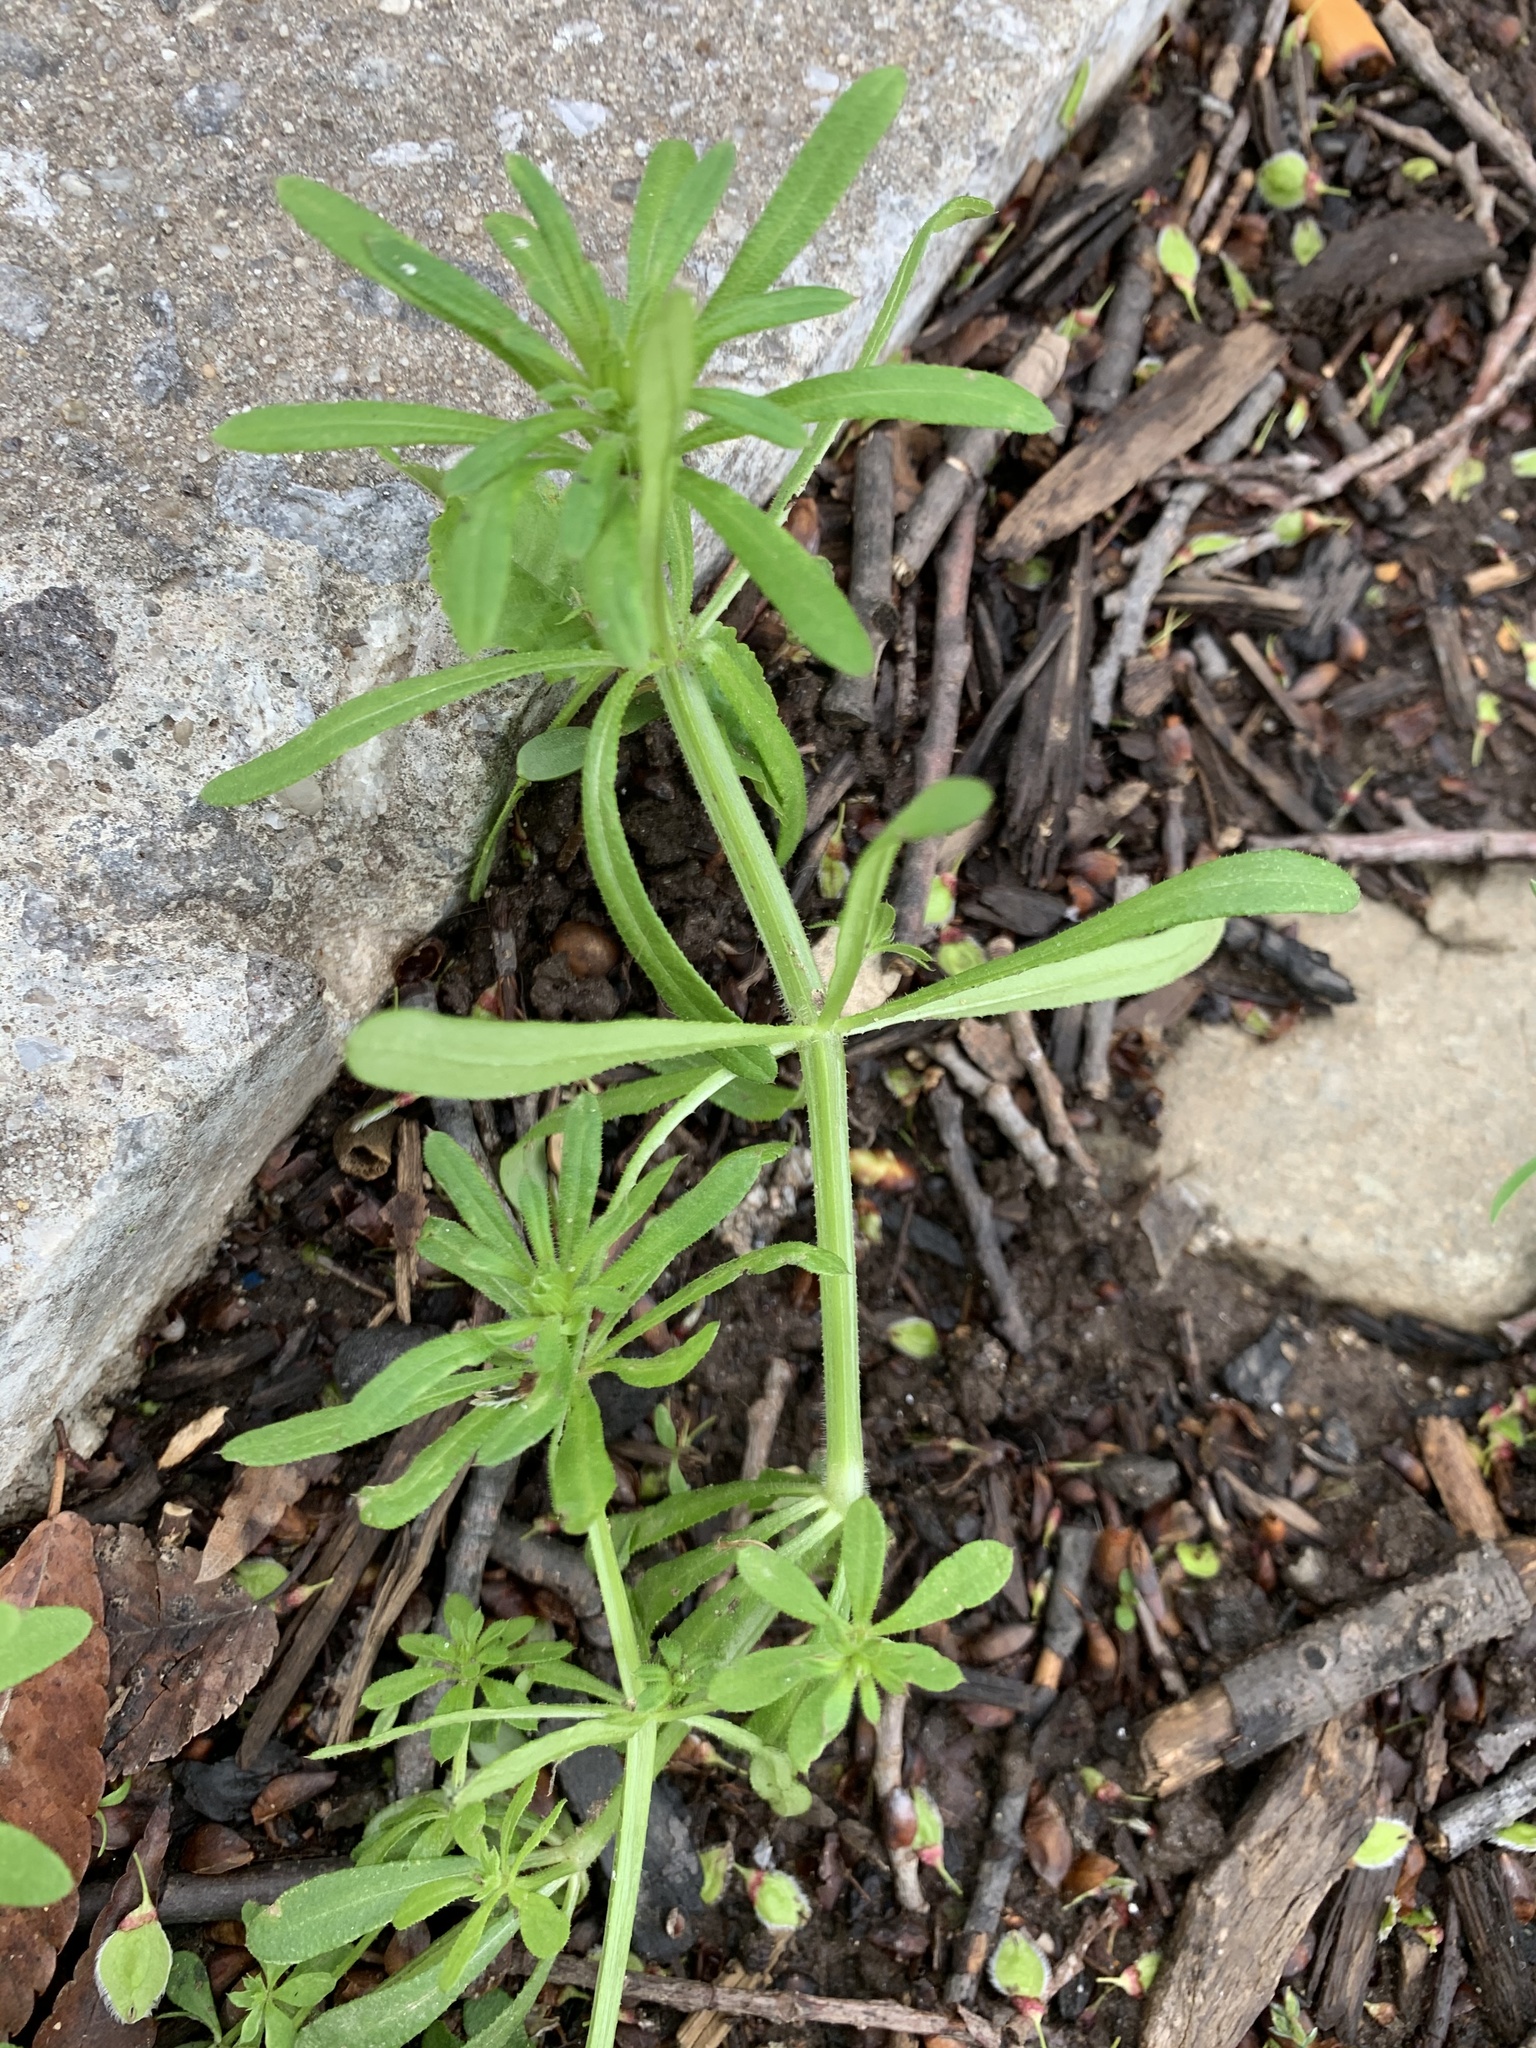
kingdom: Plantae
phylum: Tracheophyta
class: Magnoliopsida
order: Gentianales
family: Rubiaceae
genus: Galium
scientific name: Galium aparine
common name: Cleavers
